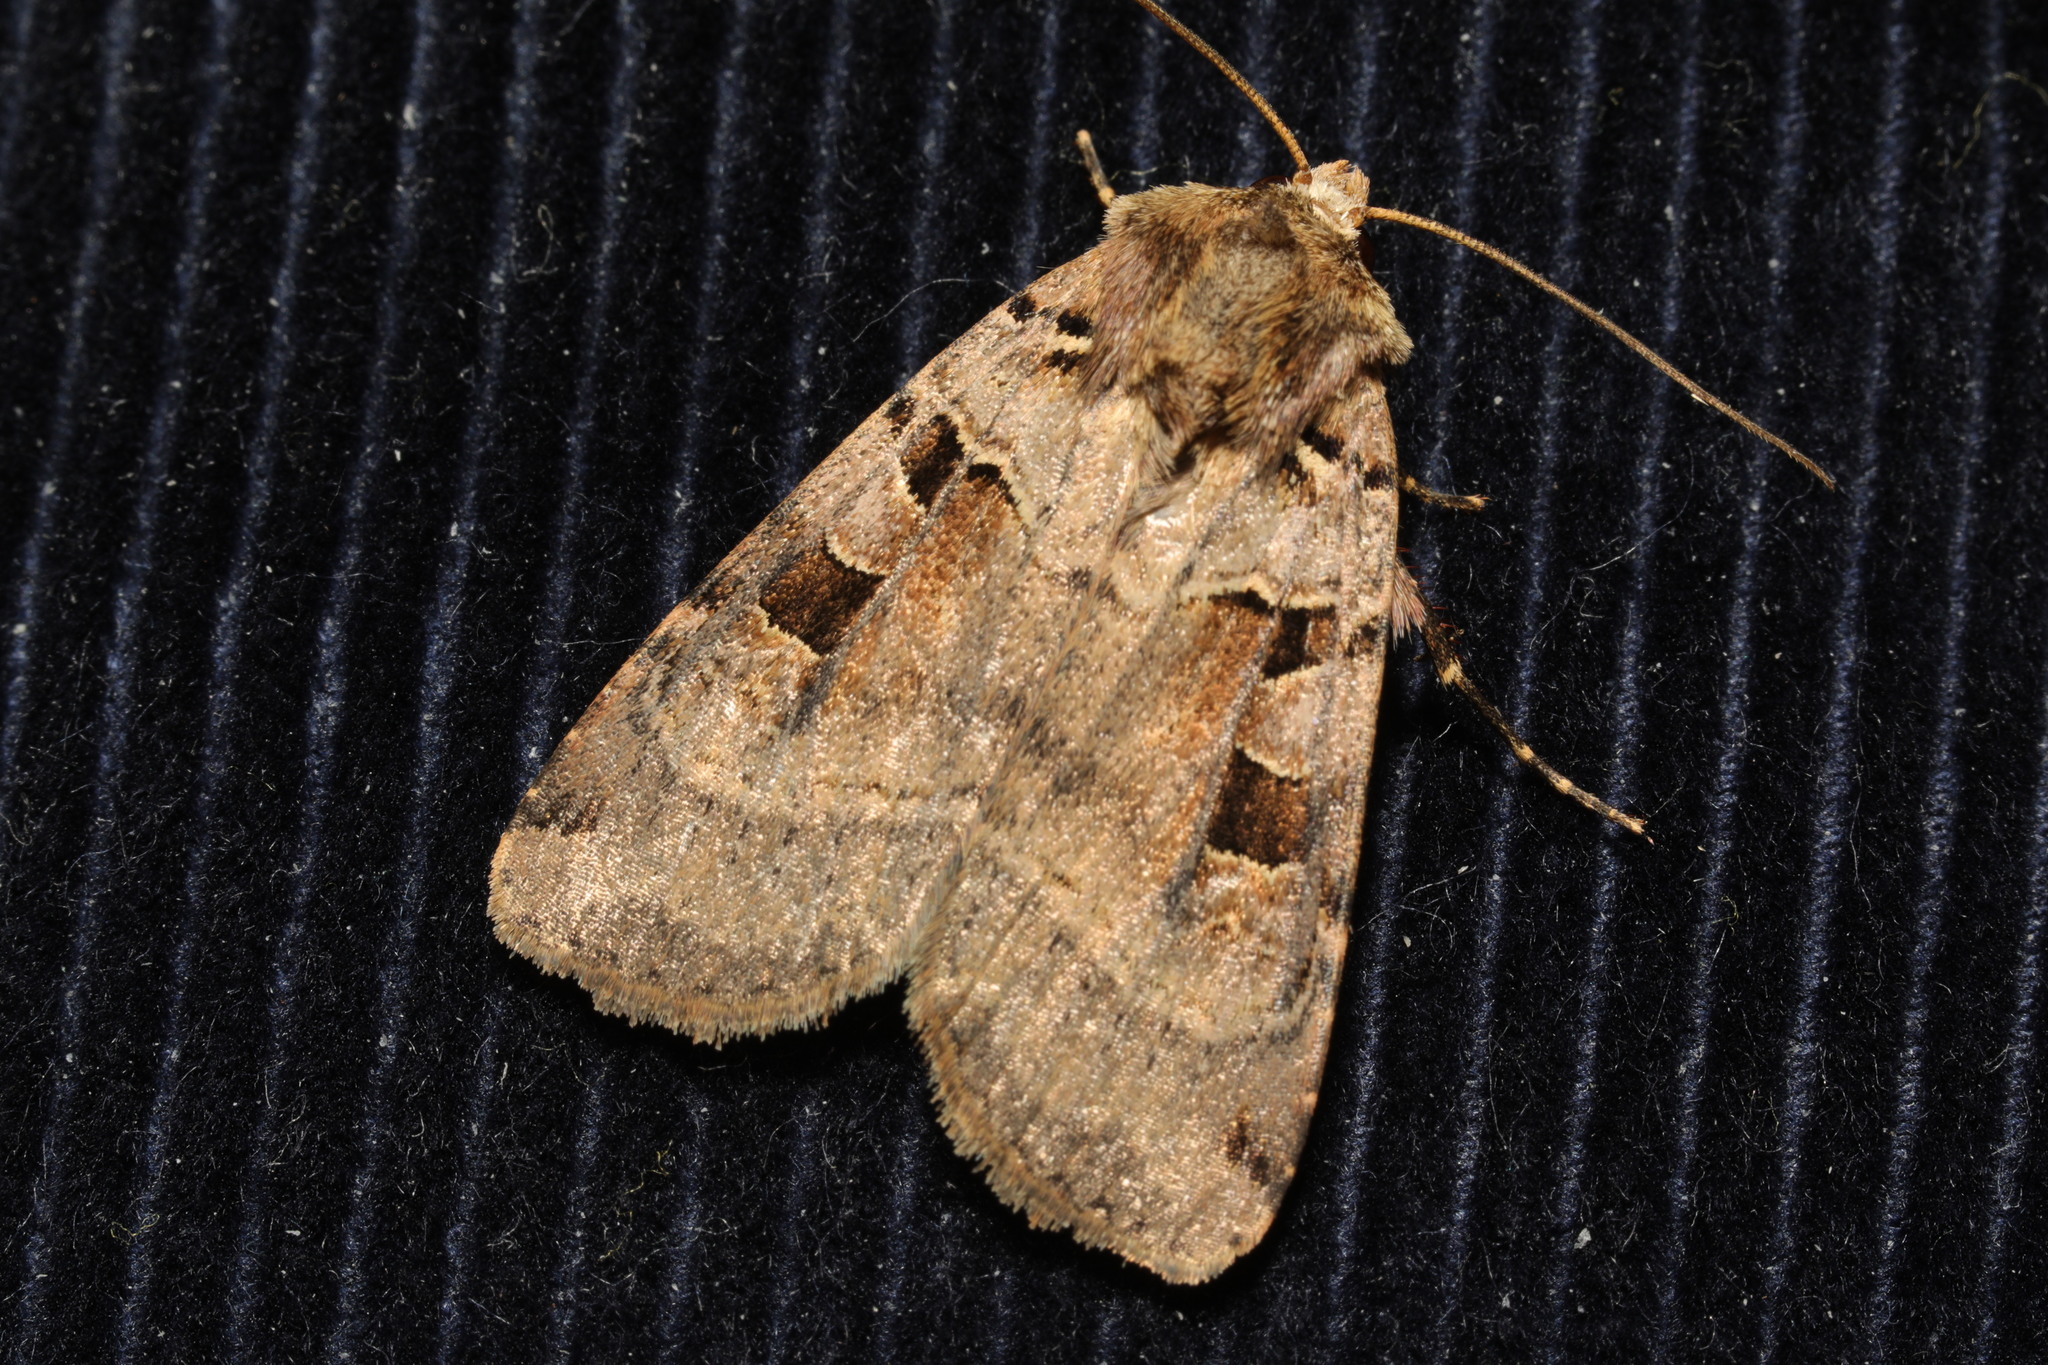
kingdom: Animalia
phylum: Arthropoda
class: Insecta
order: Lepidoptera
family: Noctuidae
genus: Xestia
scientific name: Xestia triangulum
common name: Double square-spot
